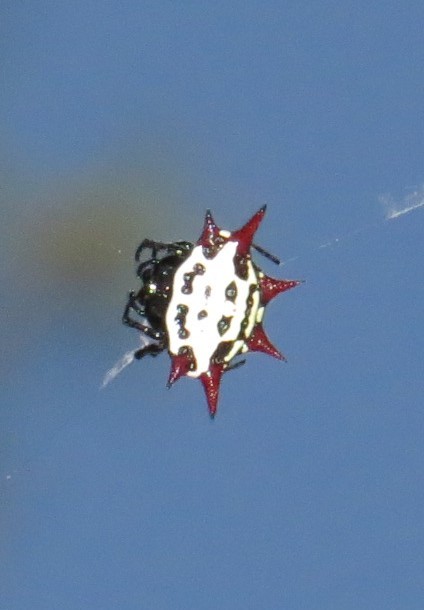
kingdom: Animalia
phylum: Arthropoda
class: Arachnida
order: Araneae
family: Araneidae
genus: Gasteracantha
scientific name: Gasteracantha cancriformis
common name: Orb weavers
